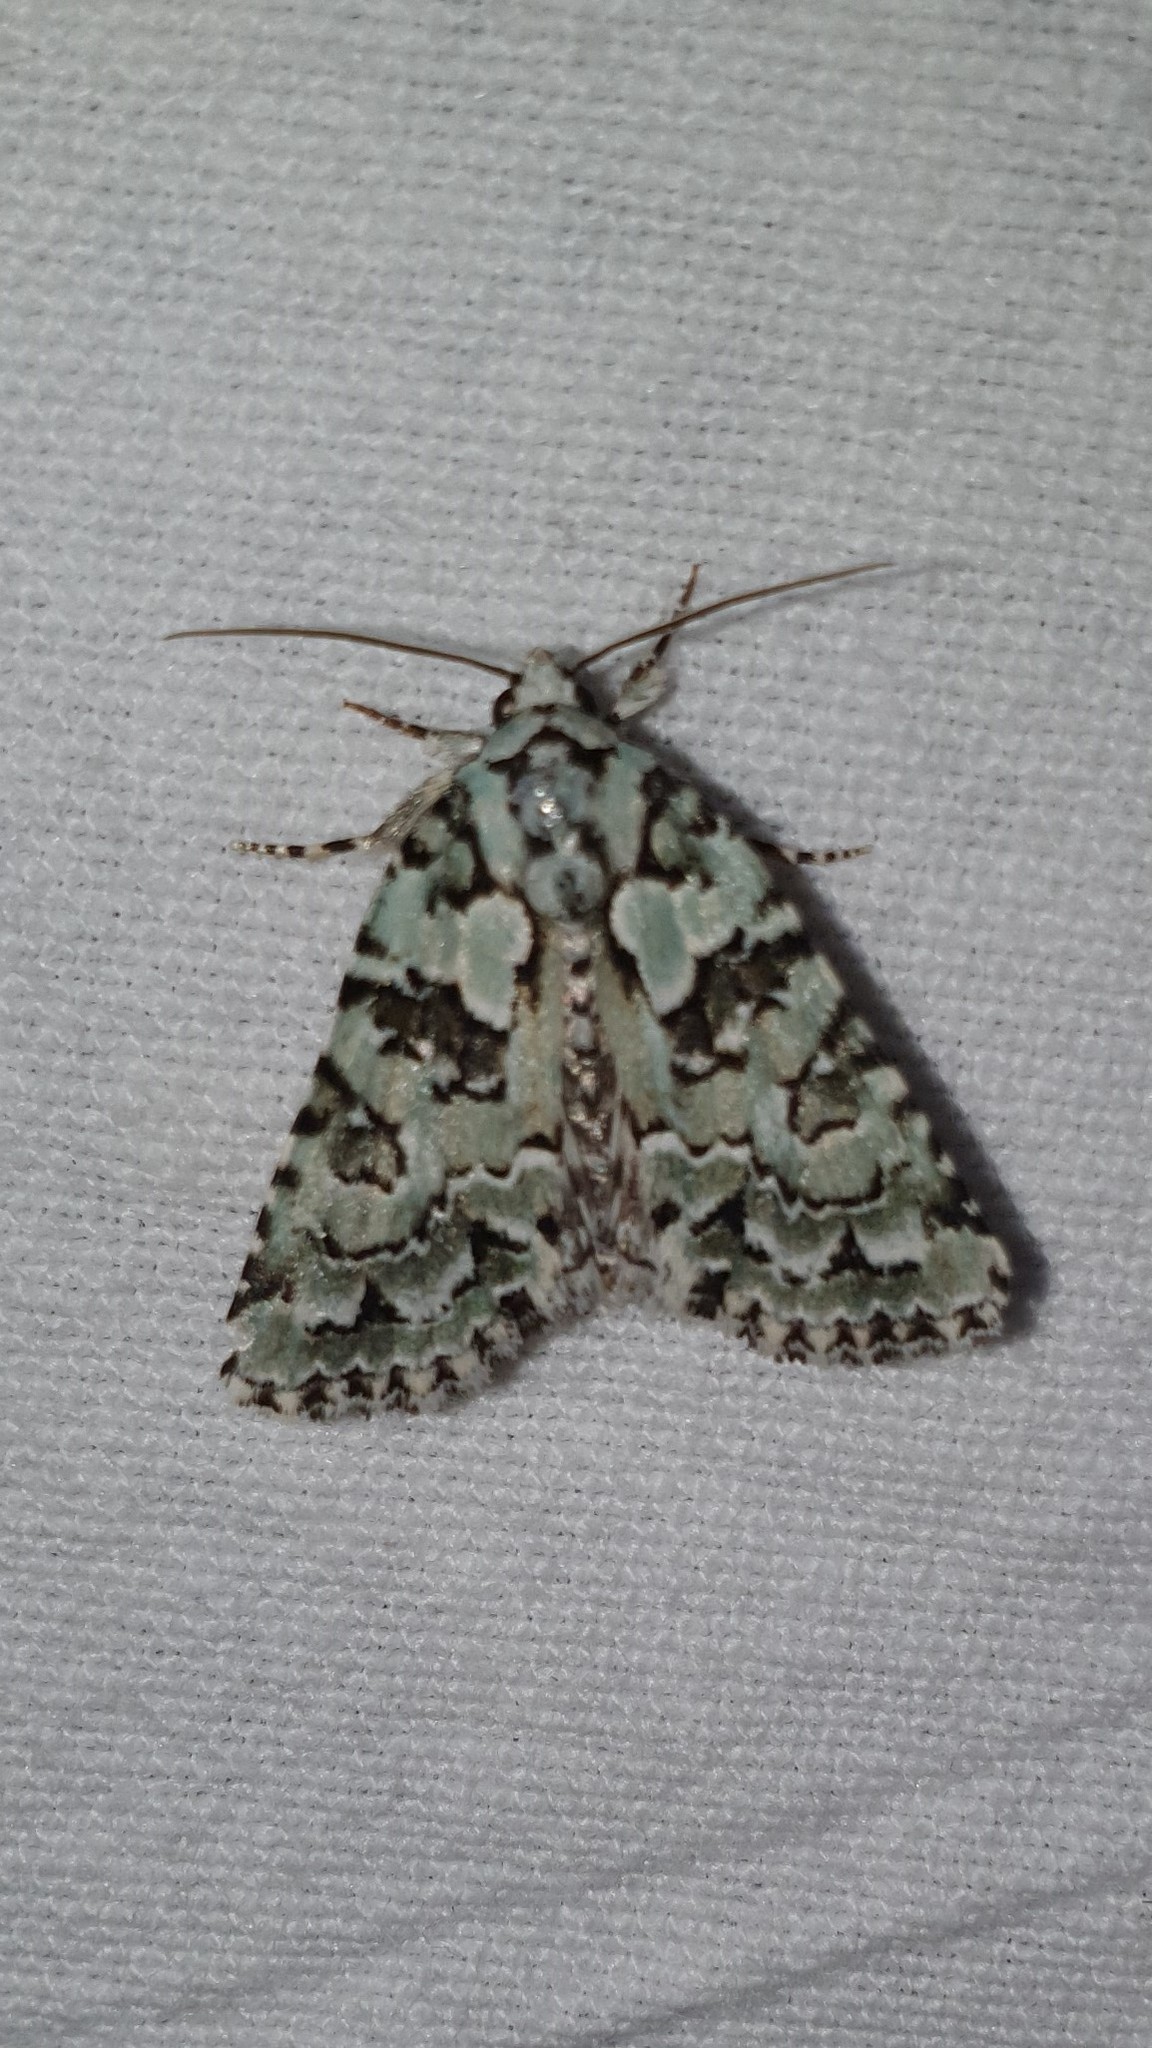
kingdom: Animalia
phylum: Arthropoda
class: Insecta
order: Lepidoptera
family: Noctuidae
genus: Nyctobrya
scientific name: Nyctobrya muralis
